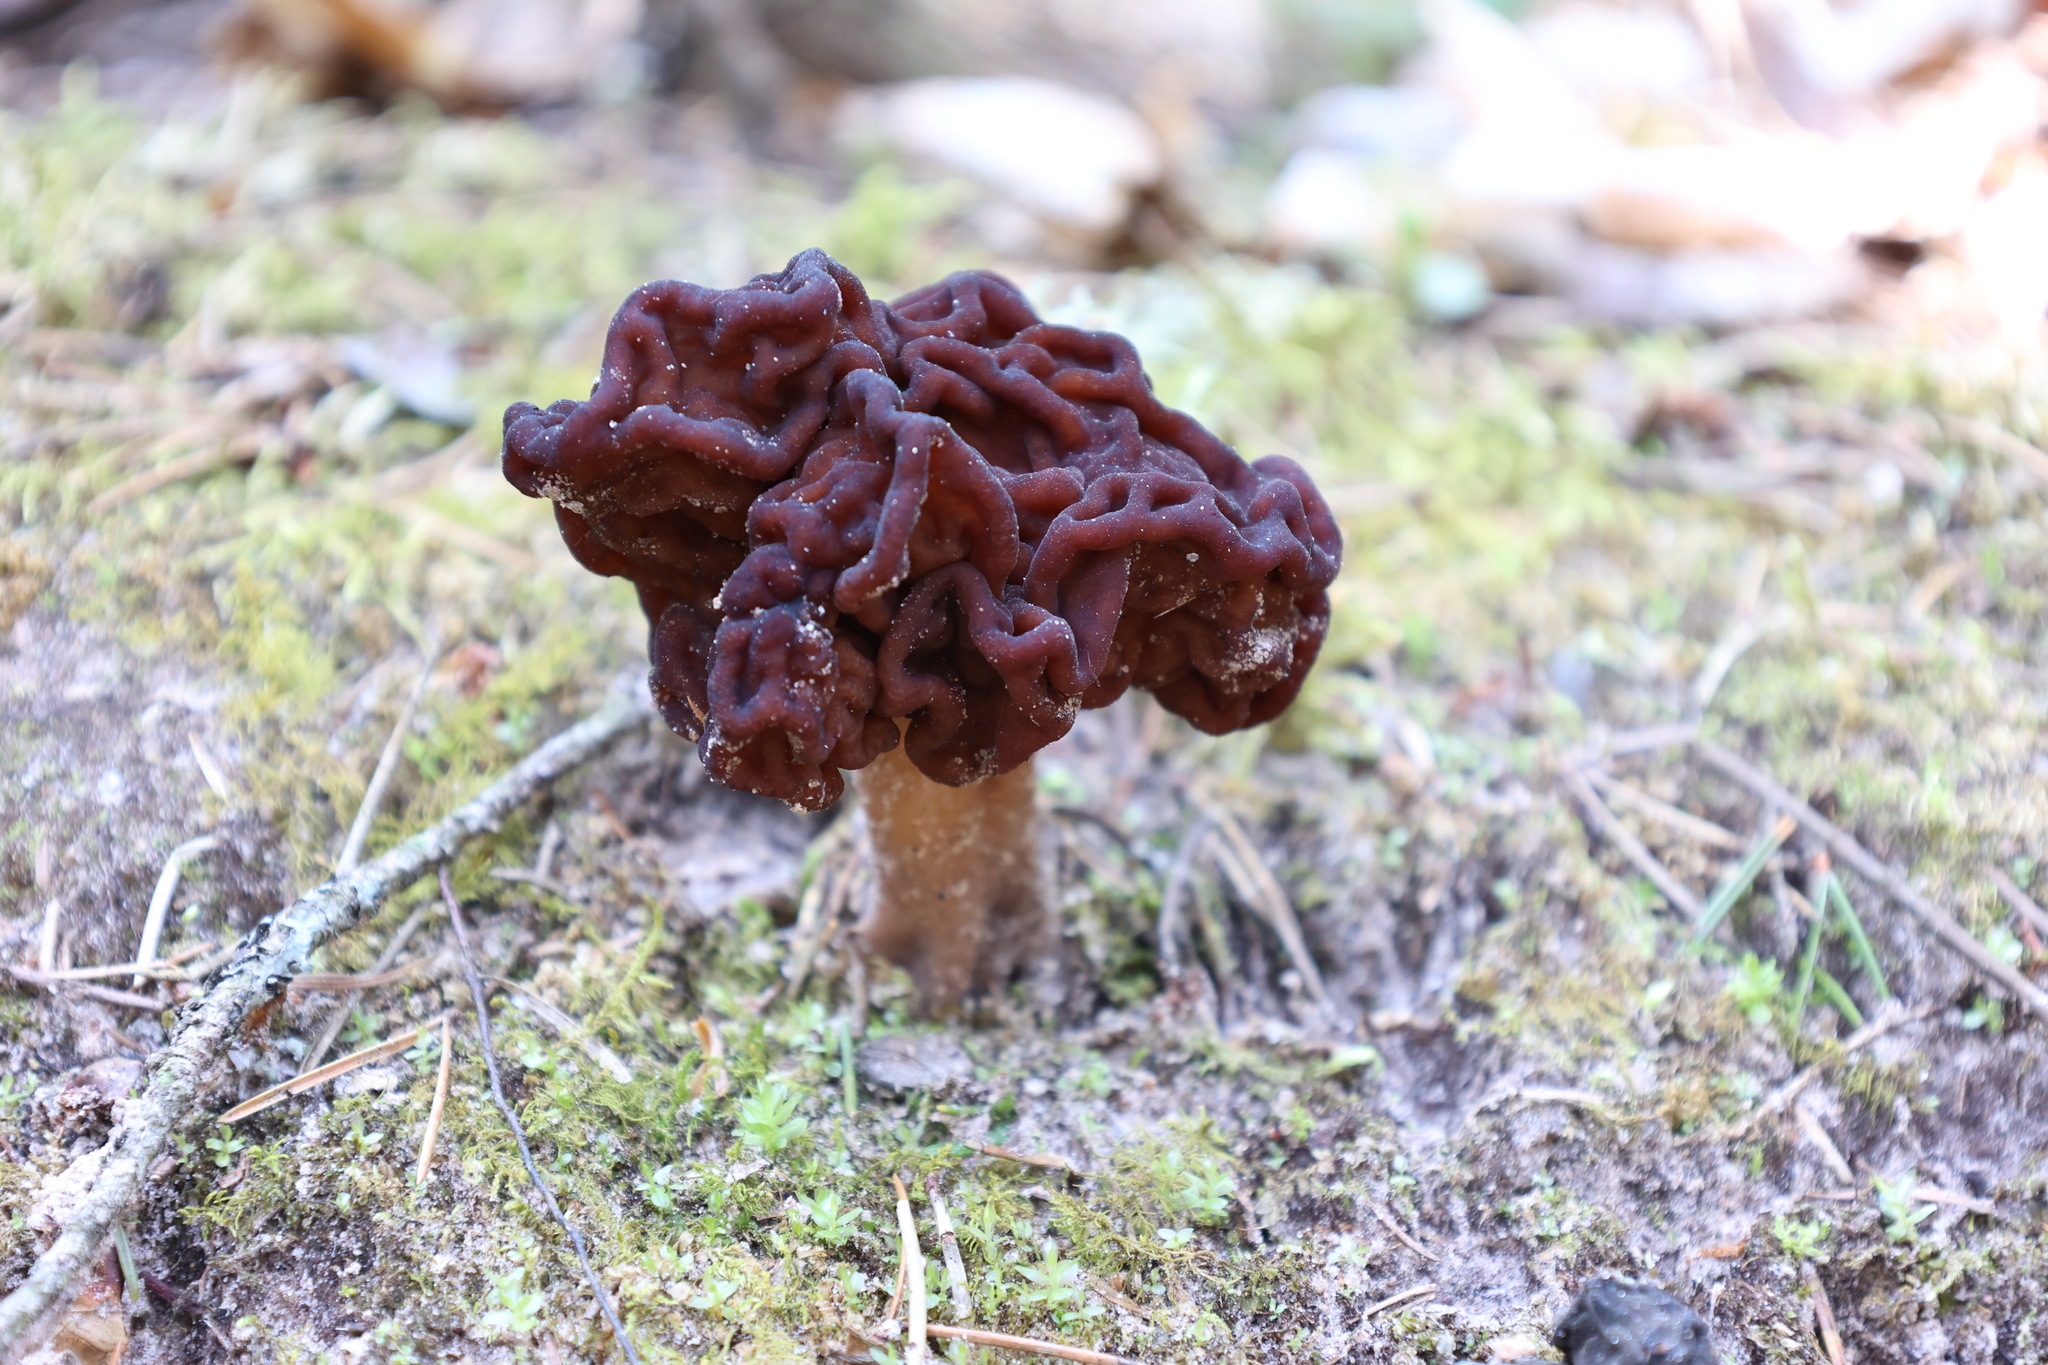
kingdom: Fungi
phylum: Ascomycota
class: Pezizomycetes
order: Pezizales
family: Discinaceae
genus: Gyromitra
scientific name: Gyromitra esculenta
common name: False morel
